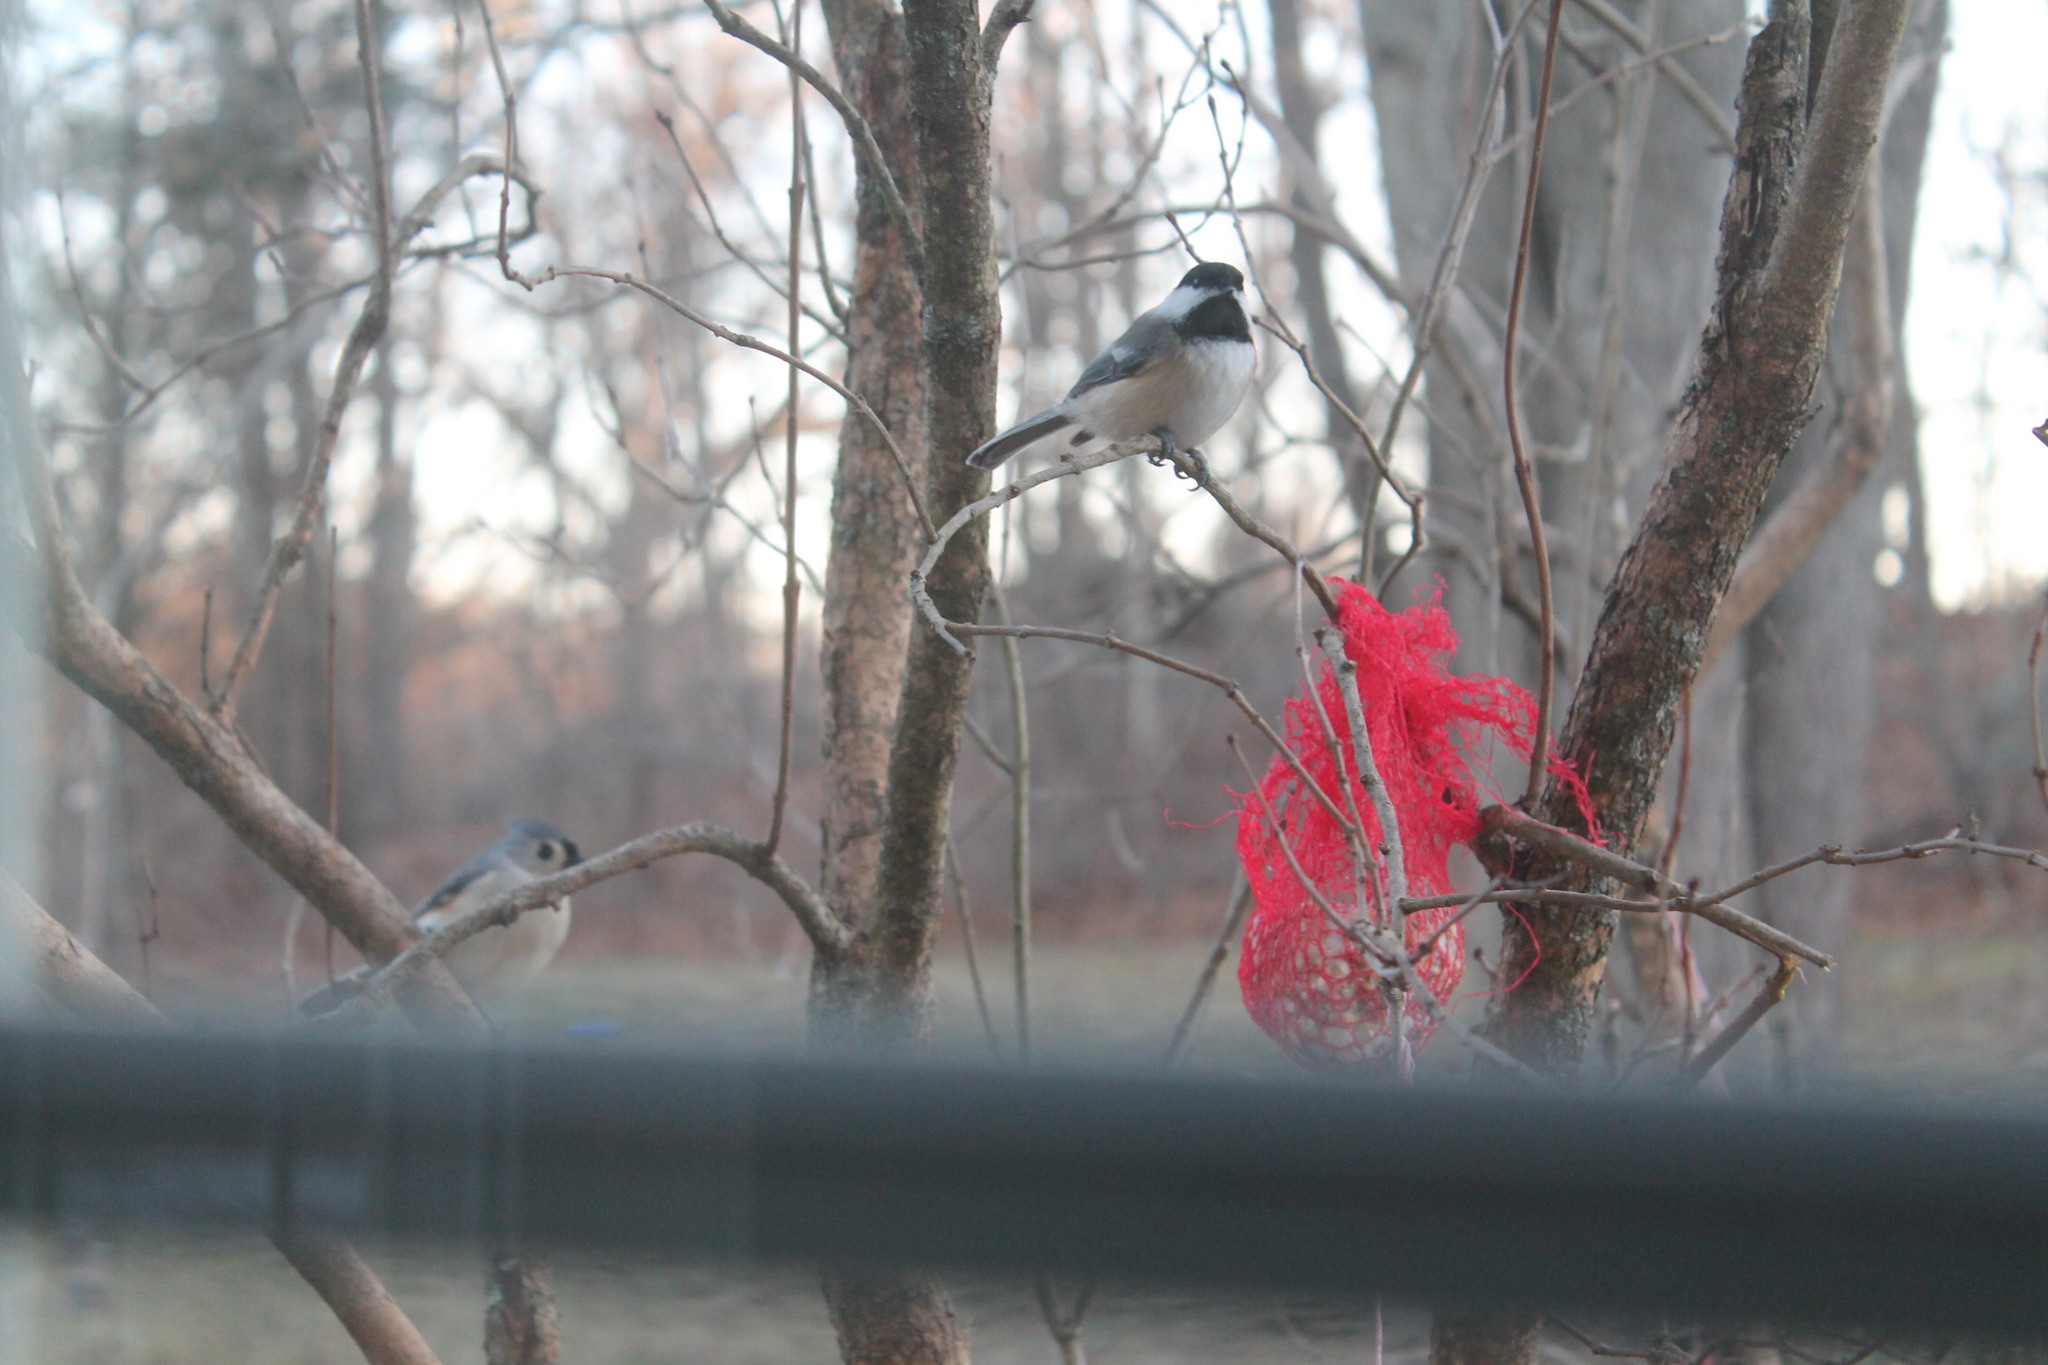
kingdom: Animalia
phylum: Chordata
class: Aves
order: Passeriformes
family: Paridae
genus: Poecile
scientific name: Poecile atricapillus
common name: Black-capped chickadee
